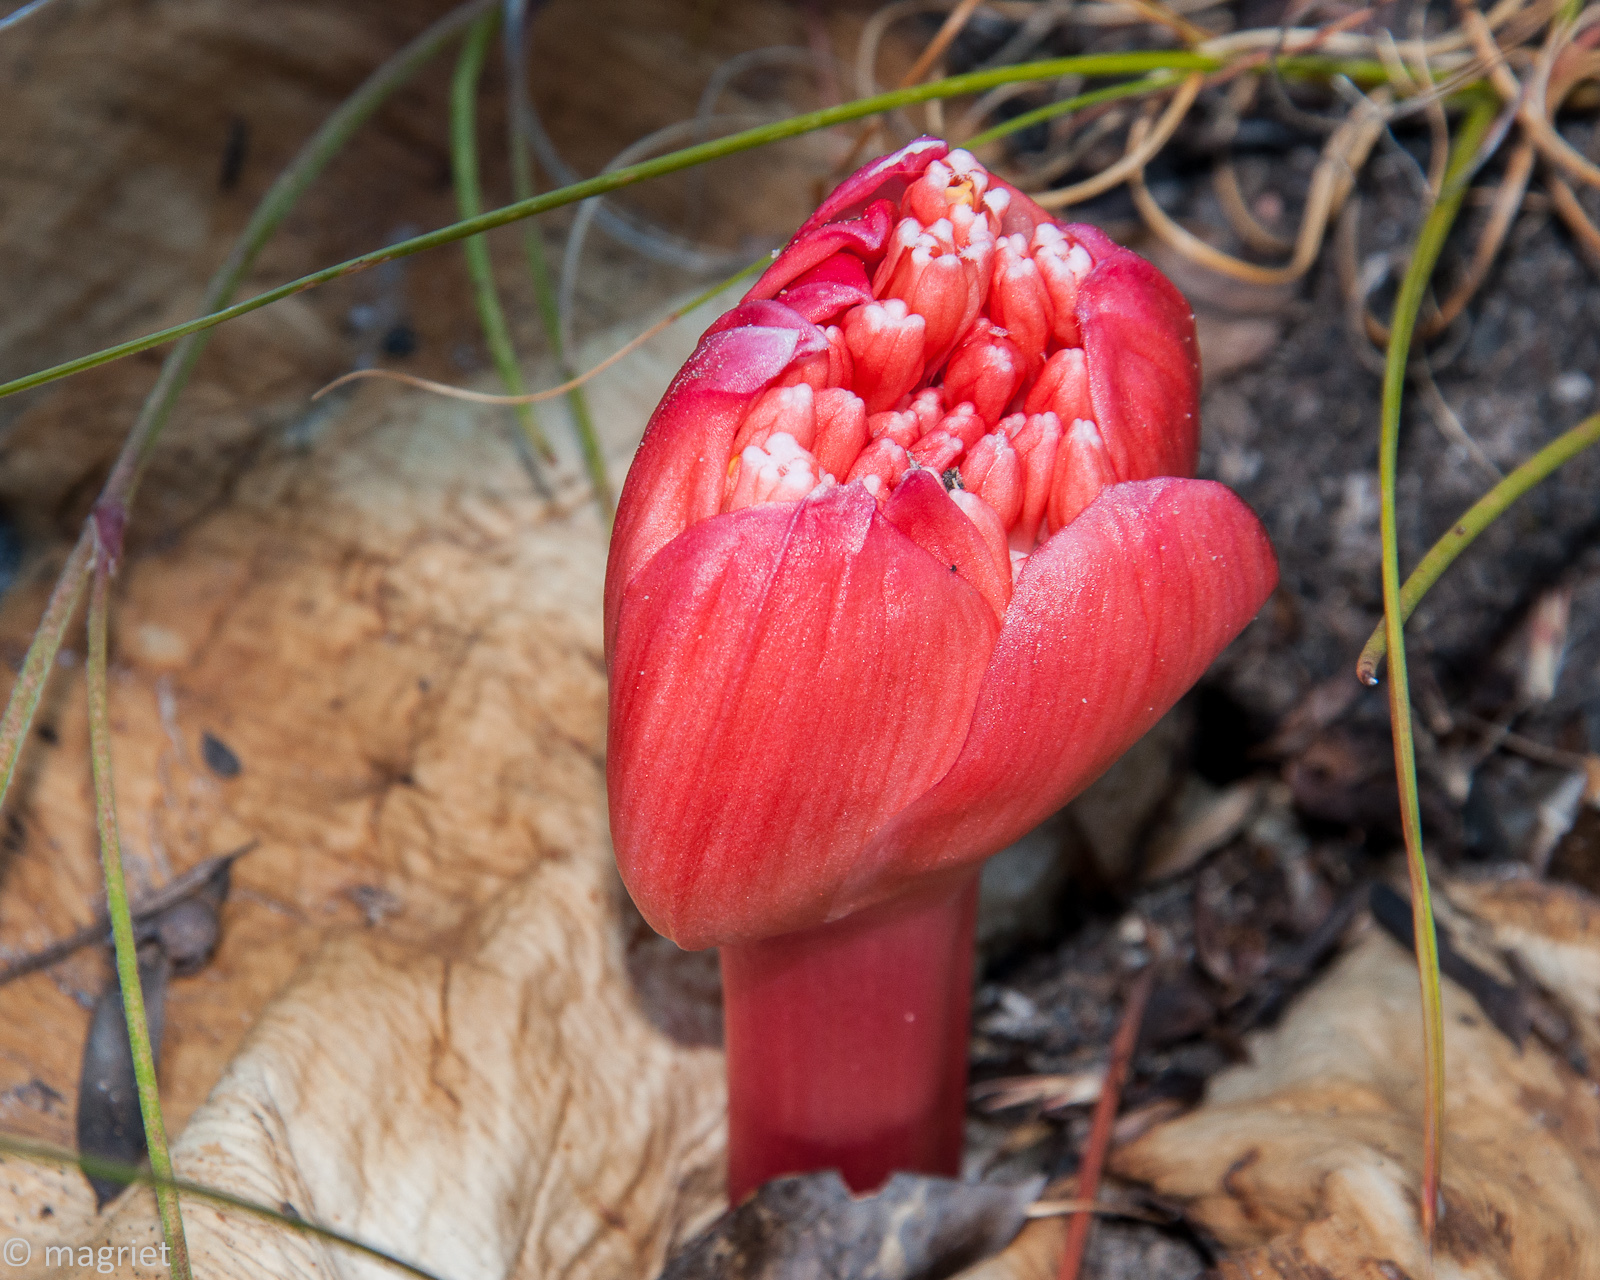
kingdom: Plantae
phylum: Tracheophyta
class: Liliopsida
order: Asparagales
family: Amaryllidaceae
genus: Haemanthus
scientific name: Haemanthus sanguineus
